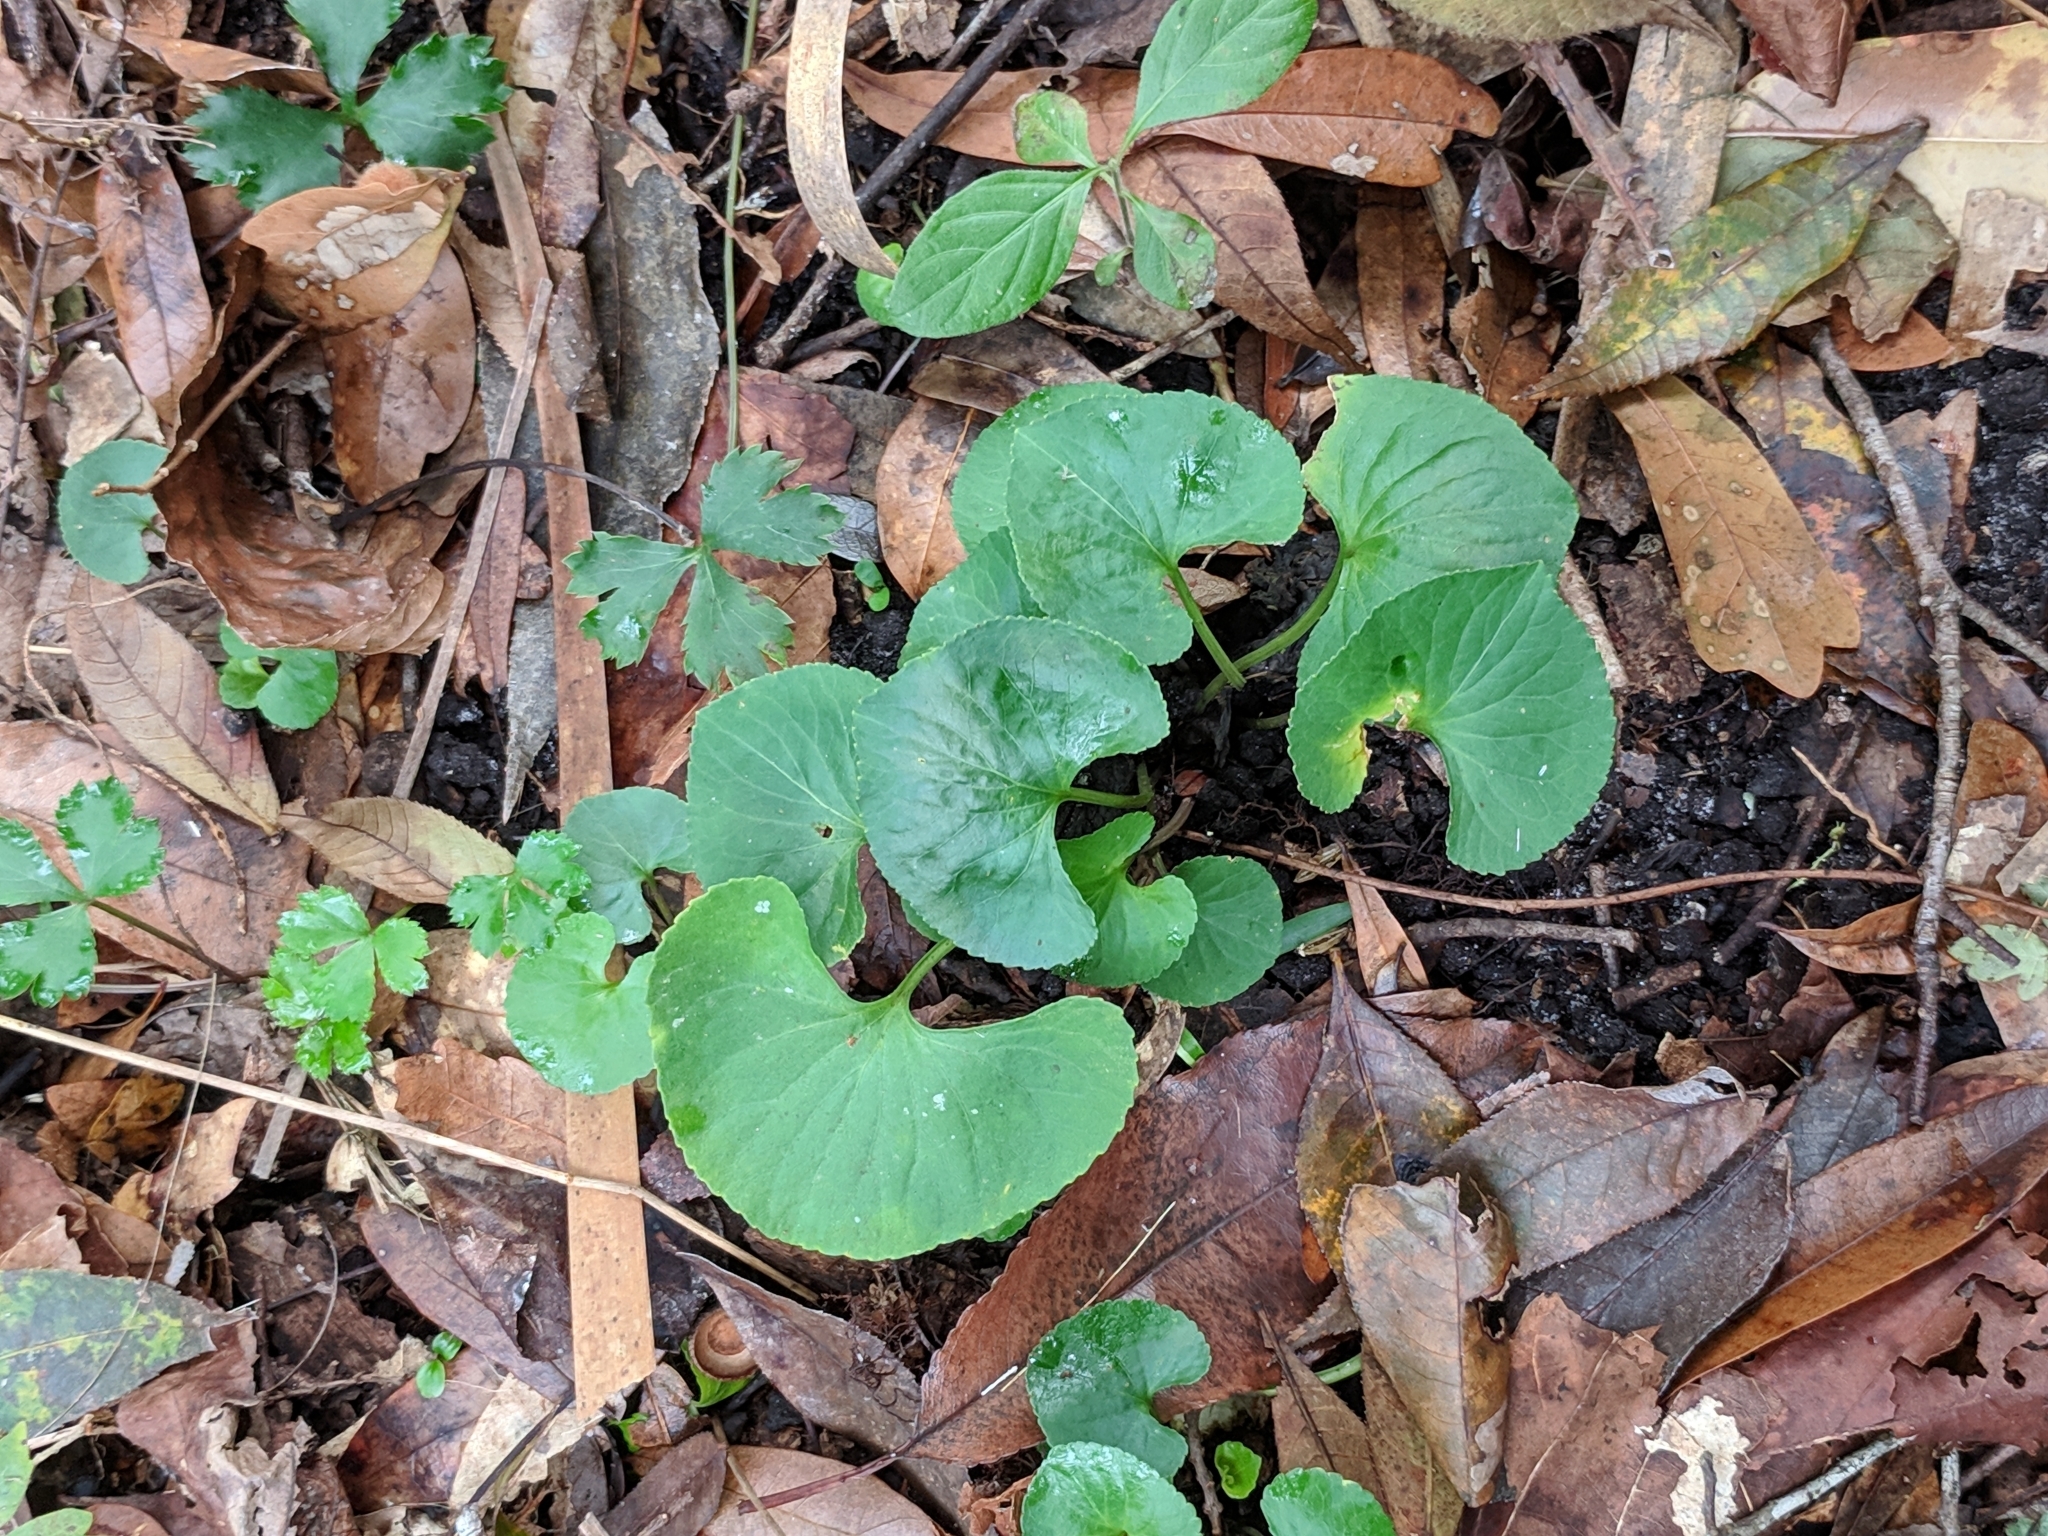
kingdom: Plantae
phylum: Tracheophyta
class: Magnoliopsida
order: Malpighiales
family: Violaceae
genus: Viola
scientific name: Viola sororia
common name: Dooryard violet
